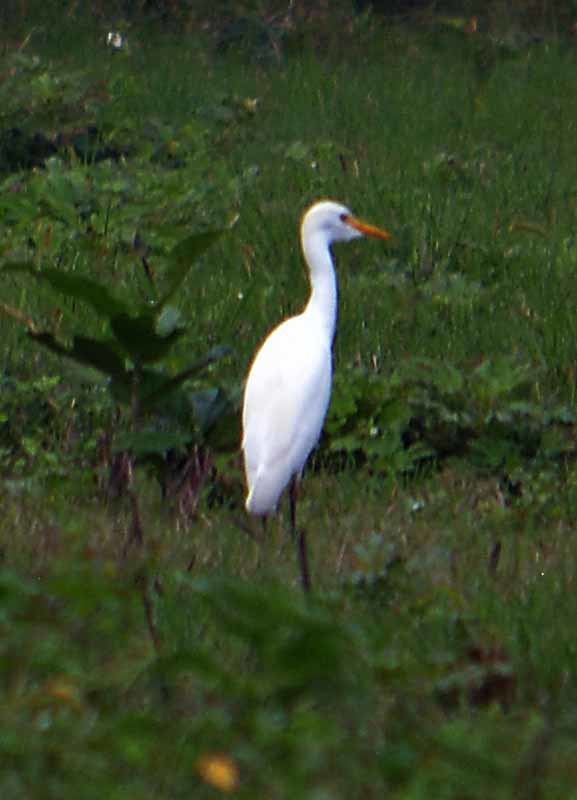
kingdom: Animalia
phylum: Chordata
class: Aves
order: Pelecaniformes
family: Ardeidae
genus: Bubulcus
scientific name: Bubulcus ibis
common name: Cattle egret
